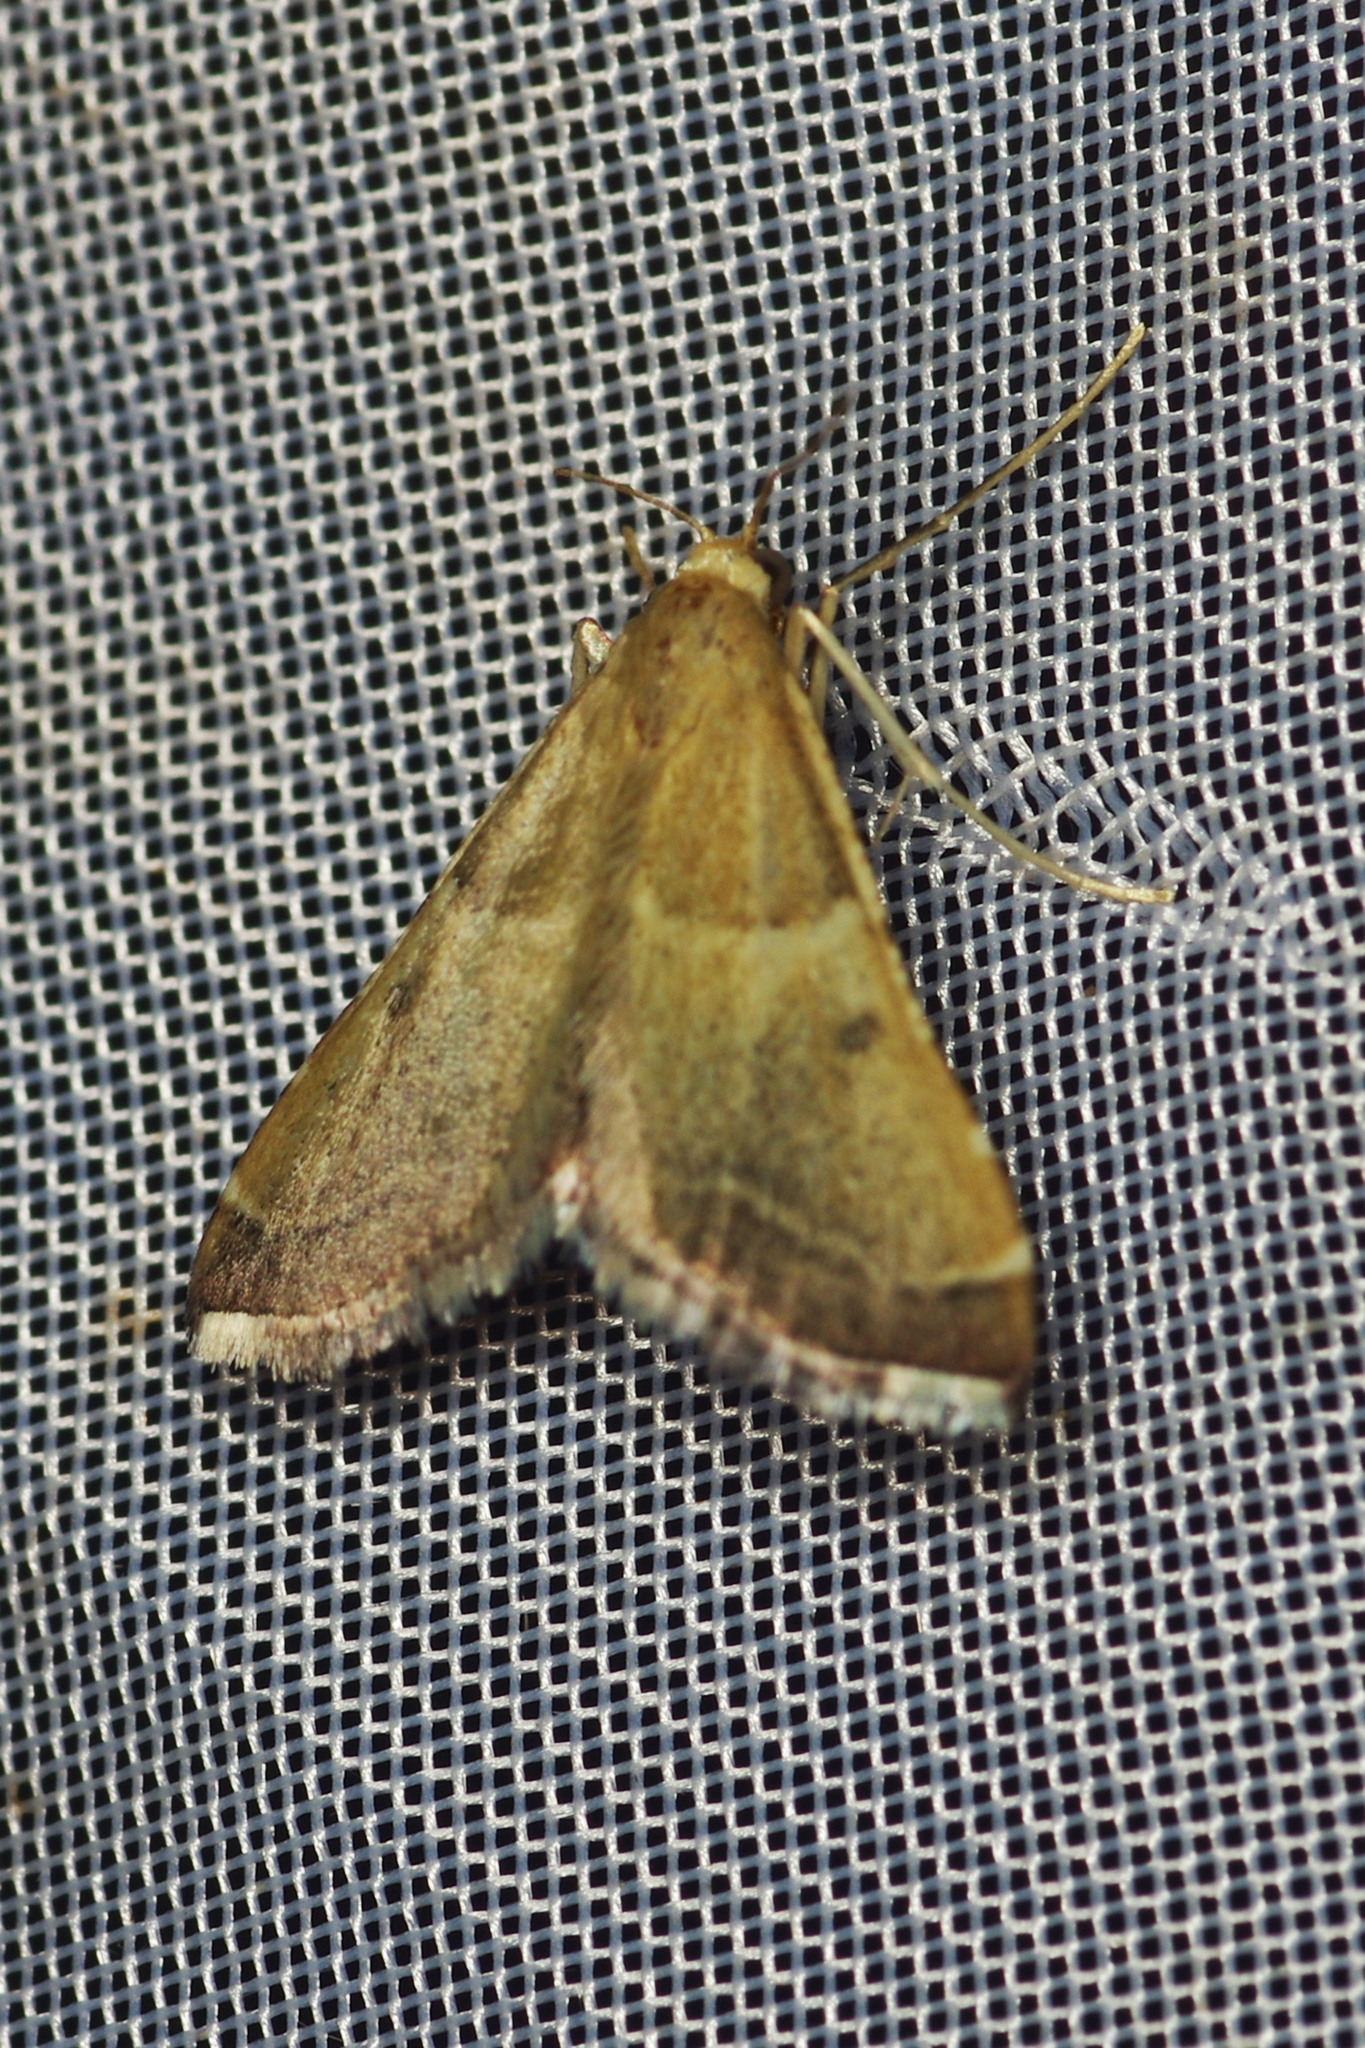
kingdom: Animalia
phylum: Arthropoda
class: Insecta
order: Lepidoptera
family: Pyralidae
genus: Endotricha
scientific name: Endotricha flammealis
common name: Rosy tabby
